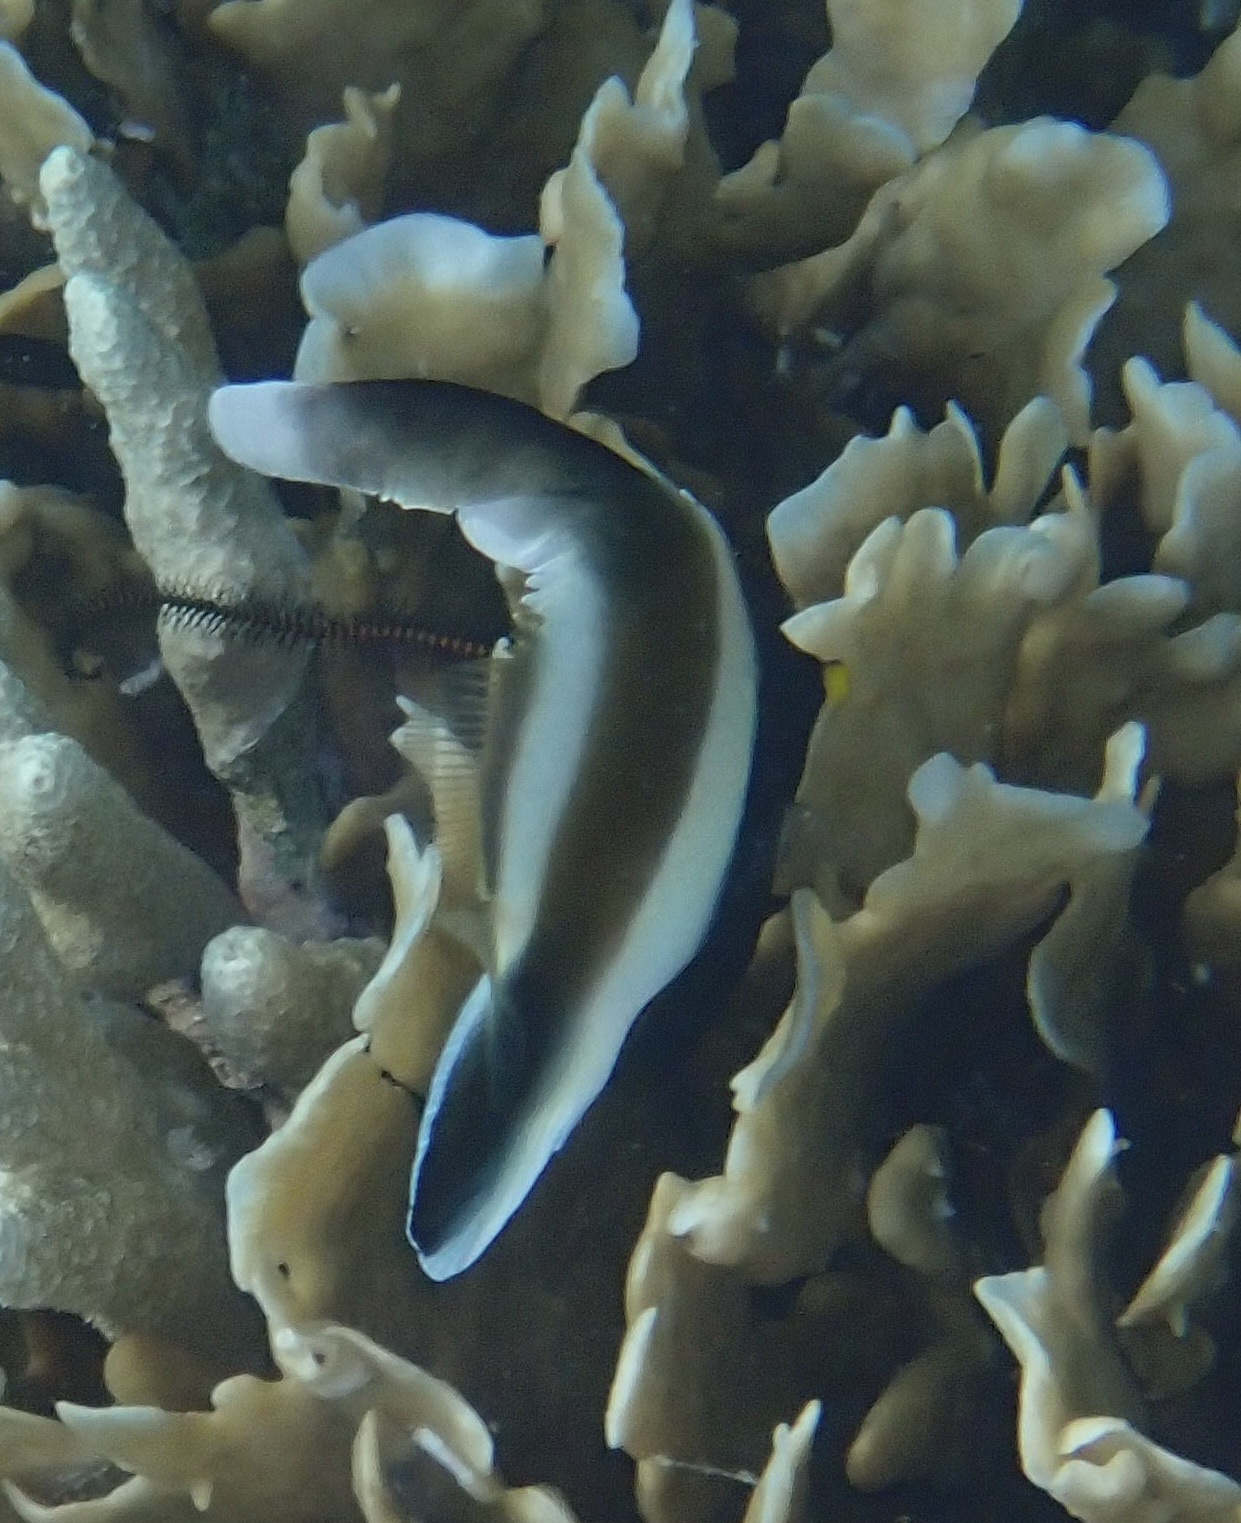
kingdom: Animalia
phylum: Chordata
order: Perciformes
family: Chaetodontidae
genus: Heniochus
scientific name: Heniochus chrysostomus
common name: Horned bannerfish
